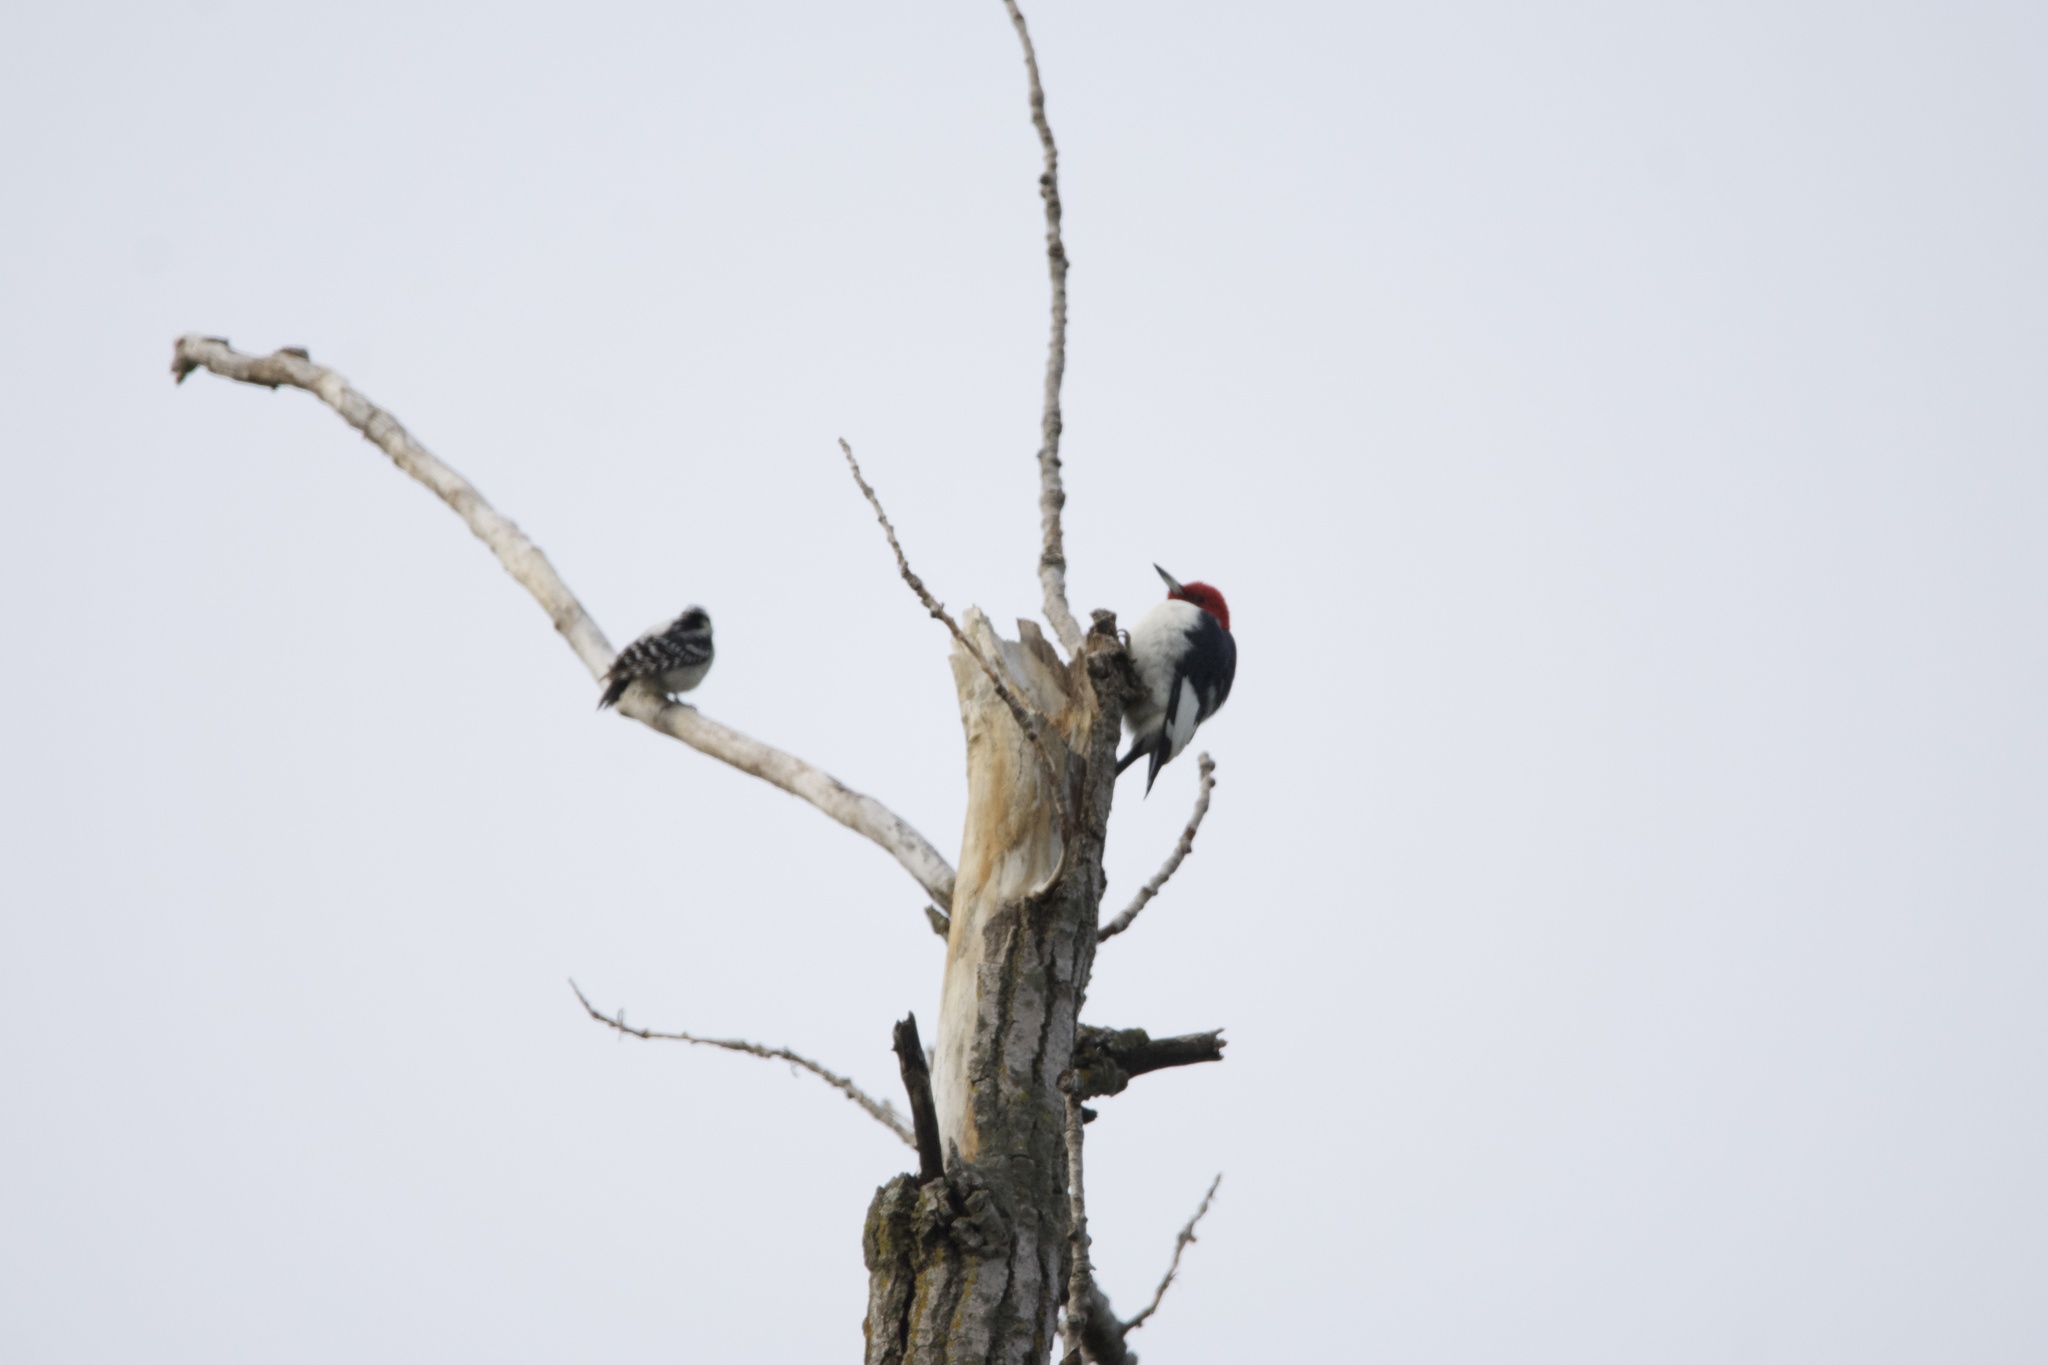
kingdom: Animalia
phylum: Chordata
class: Aves
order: Piciformes
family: Picidae
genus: Melanerpes
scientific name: Melanerpes erythrocephalus
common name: Red-headed woodpecker
